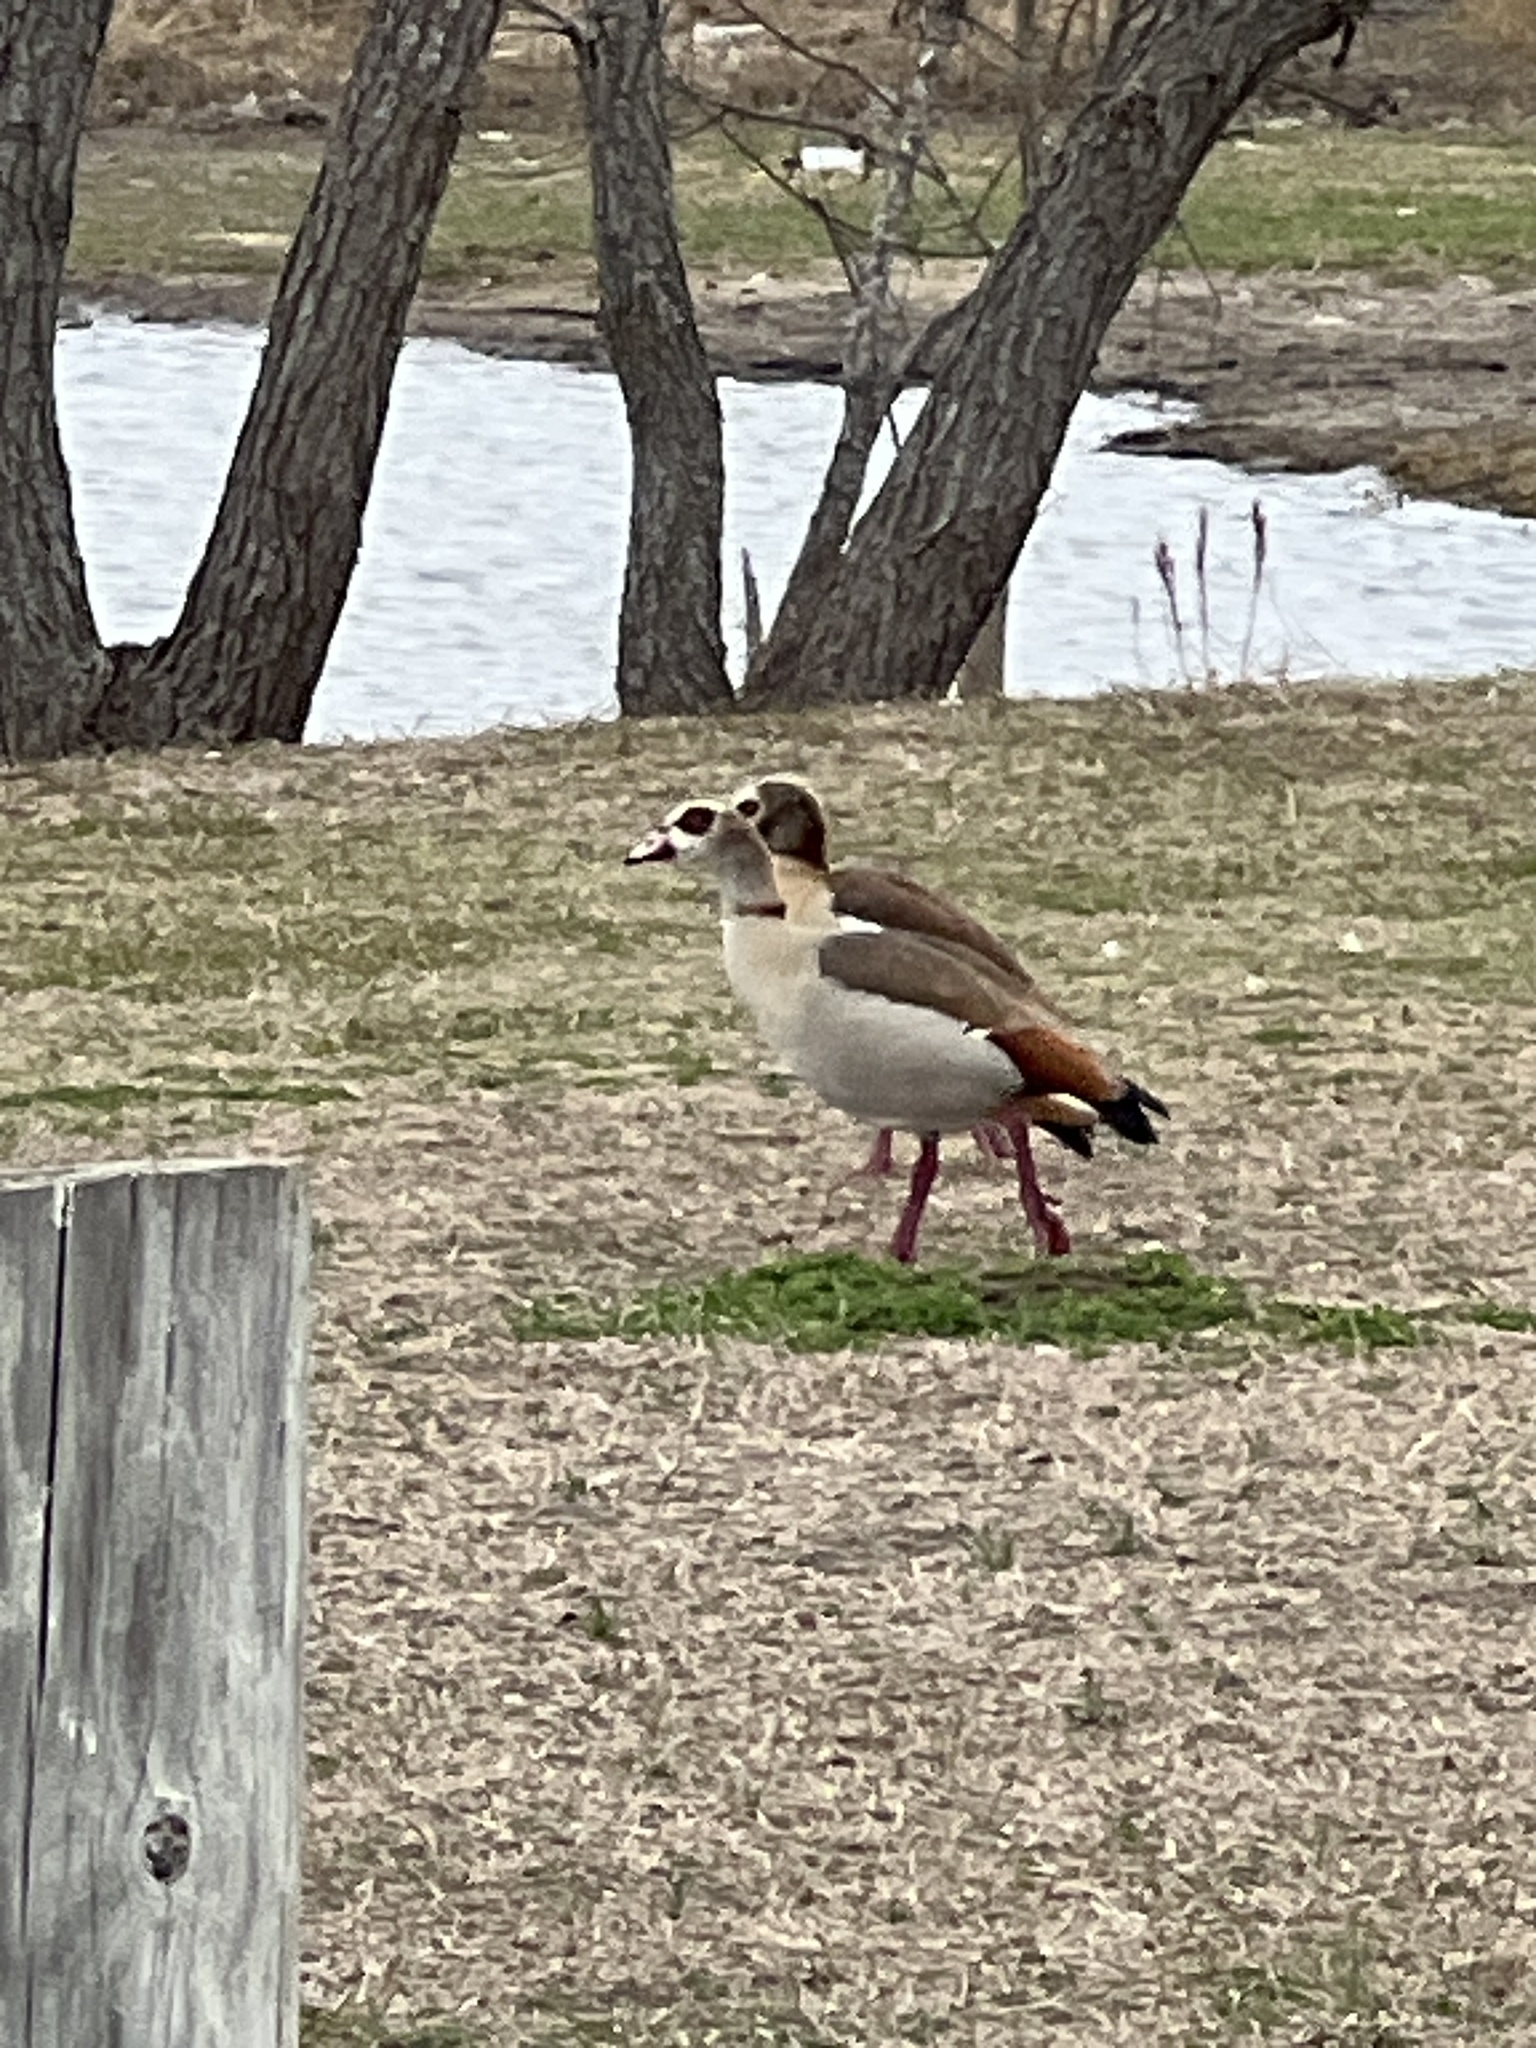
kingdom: Animalia
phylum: Chordata
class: Aves
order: Anseriformes
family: Anatidae
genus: Alopochen
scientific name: Alopochen aegyptiaca
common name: Egyptian goose
